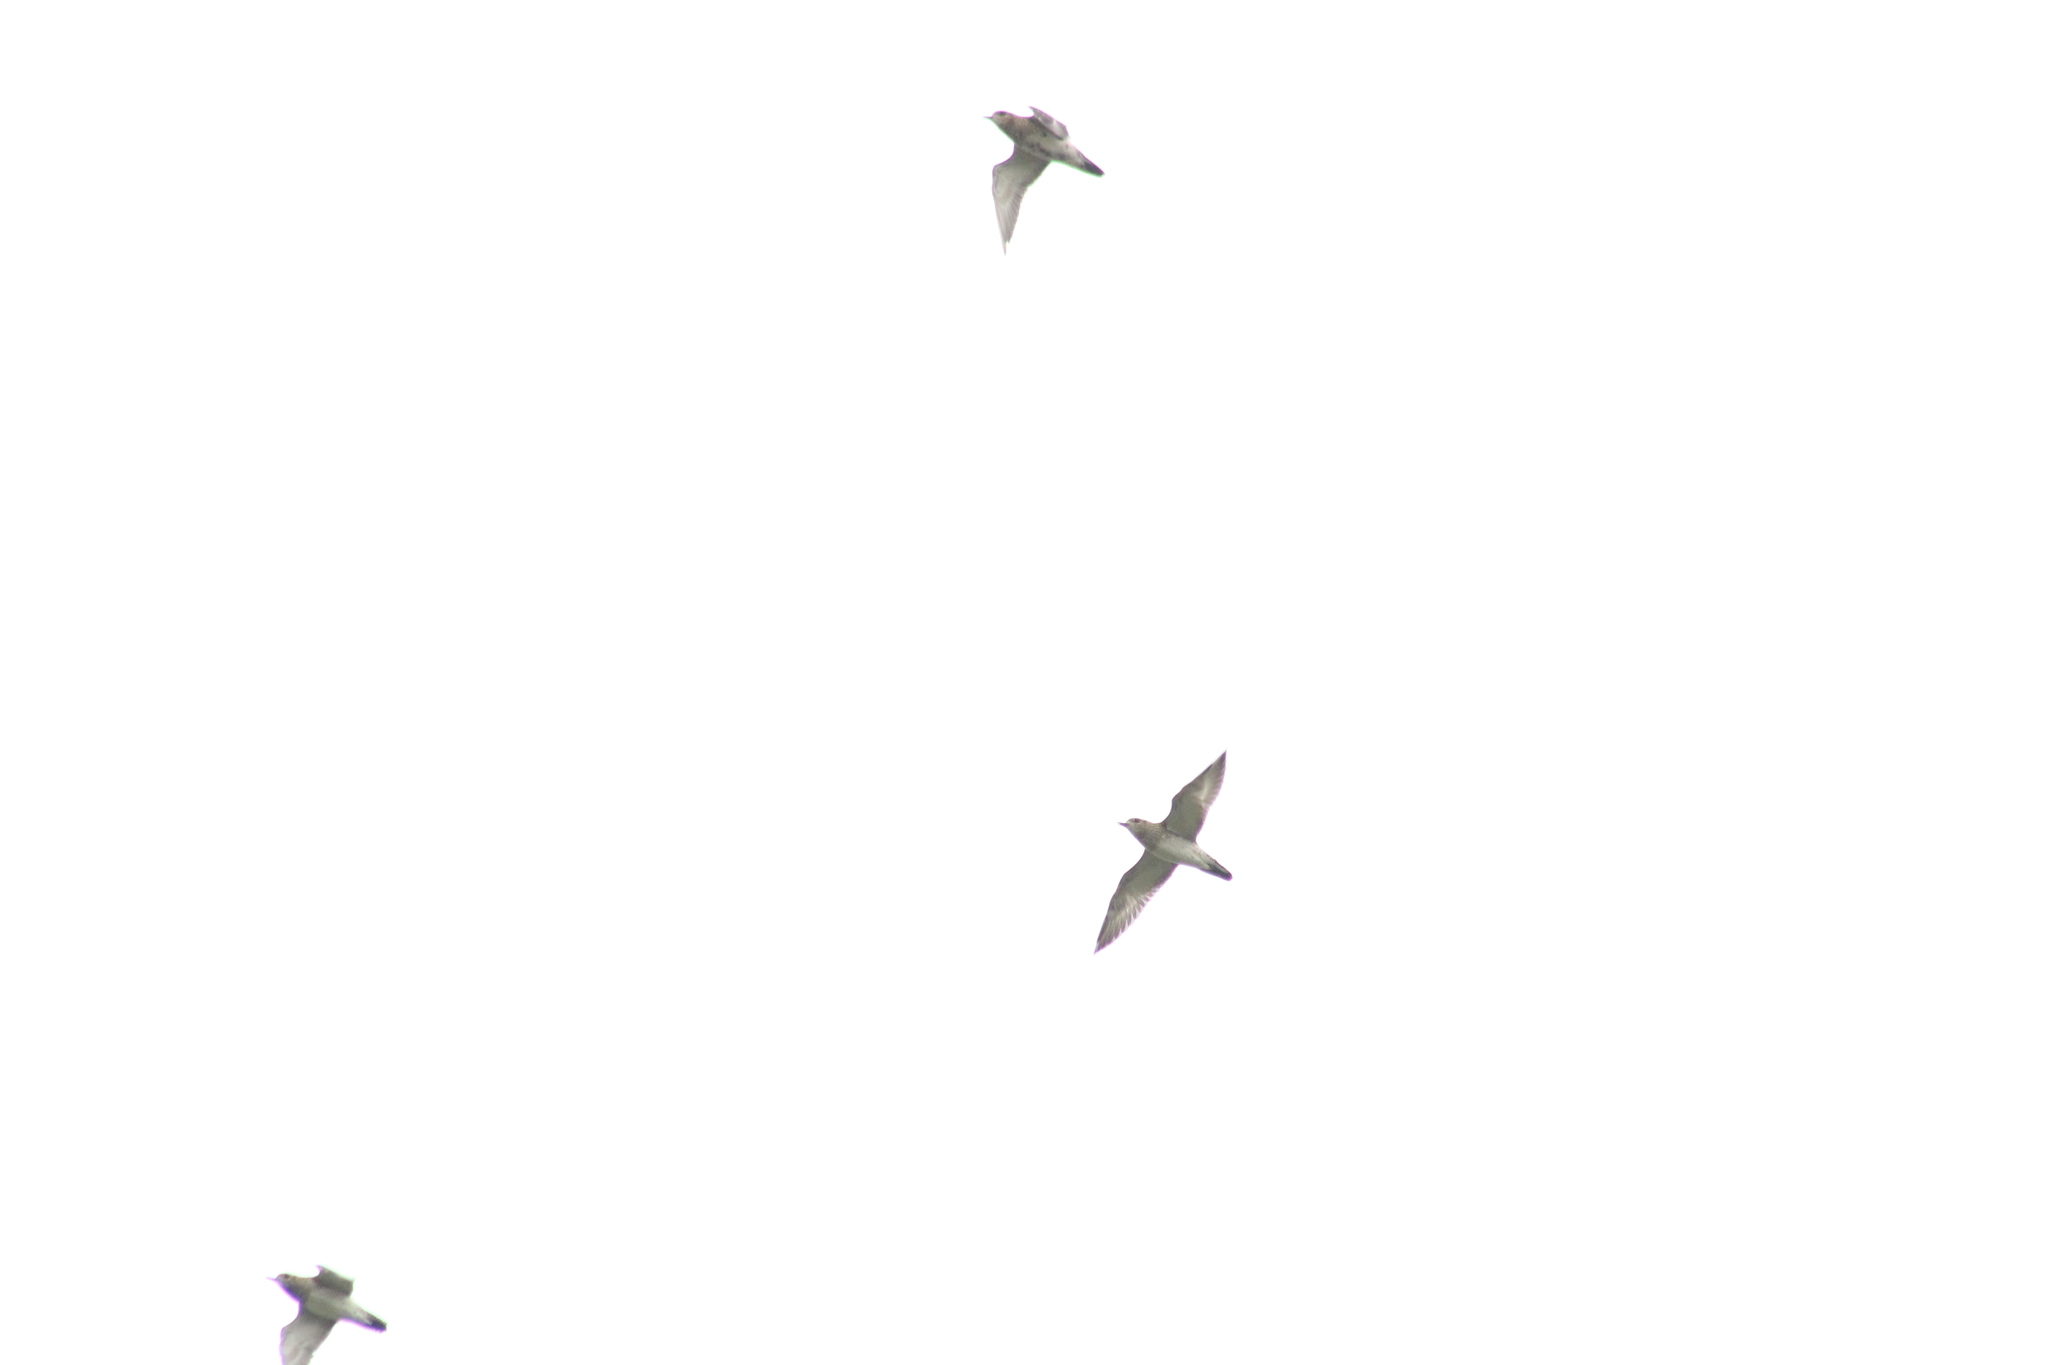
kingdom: Animalia
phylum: Chordata
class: Aves
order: Charadriiformes
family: Charadriidae
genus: Pluvialis
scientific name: Pluvialis apricaria
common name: European golden plover
